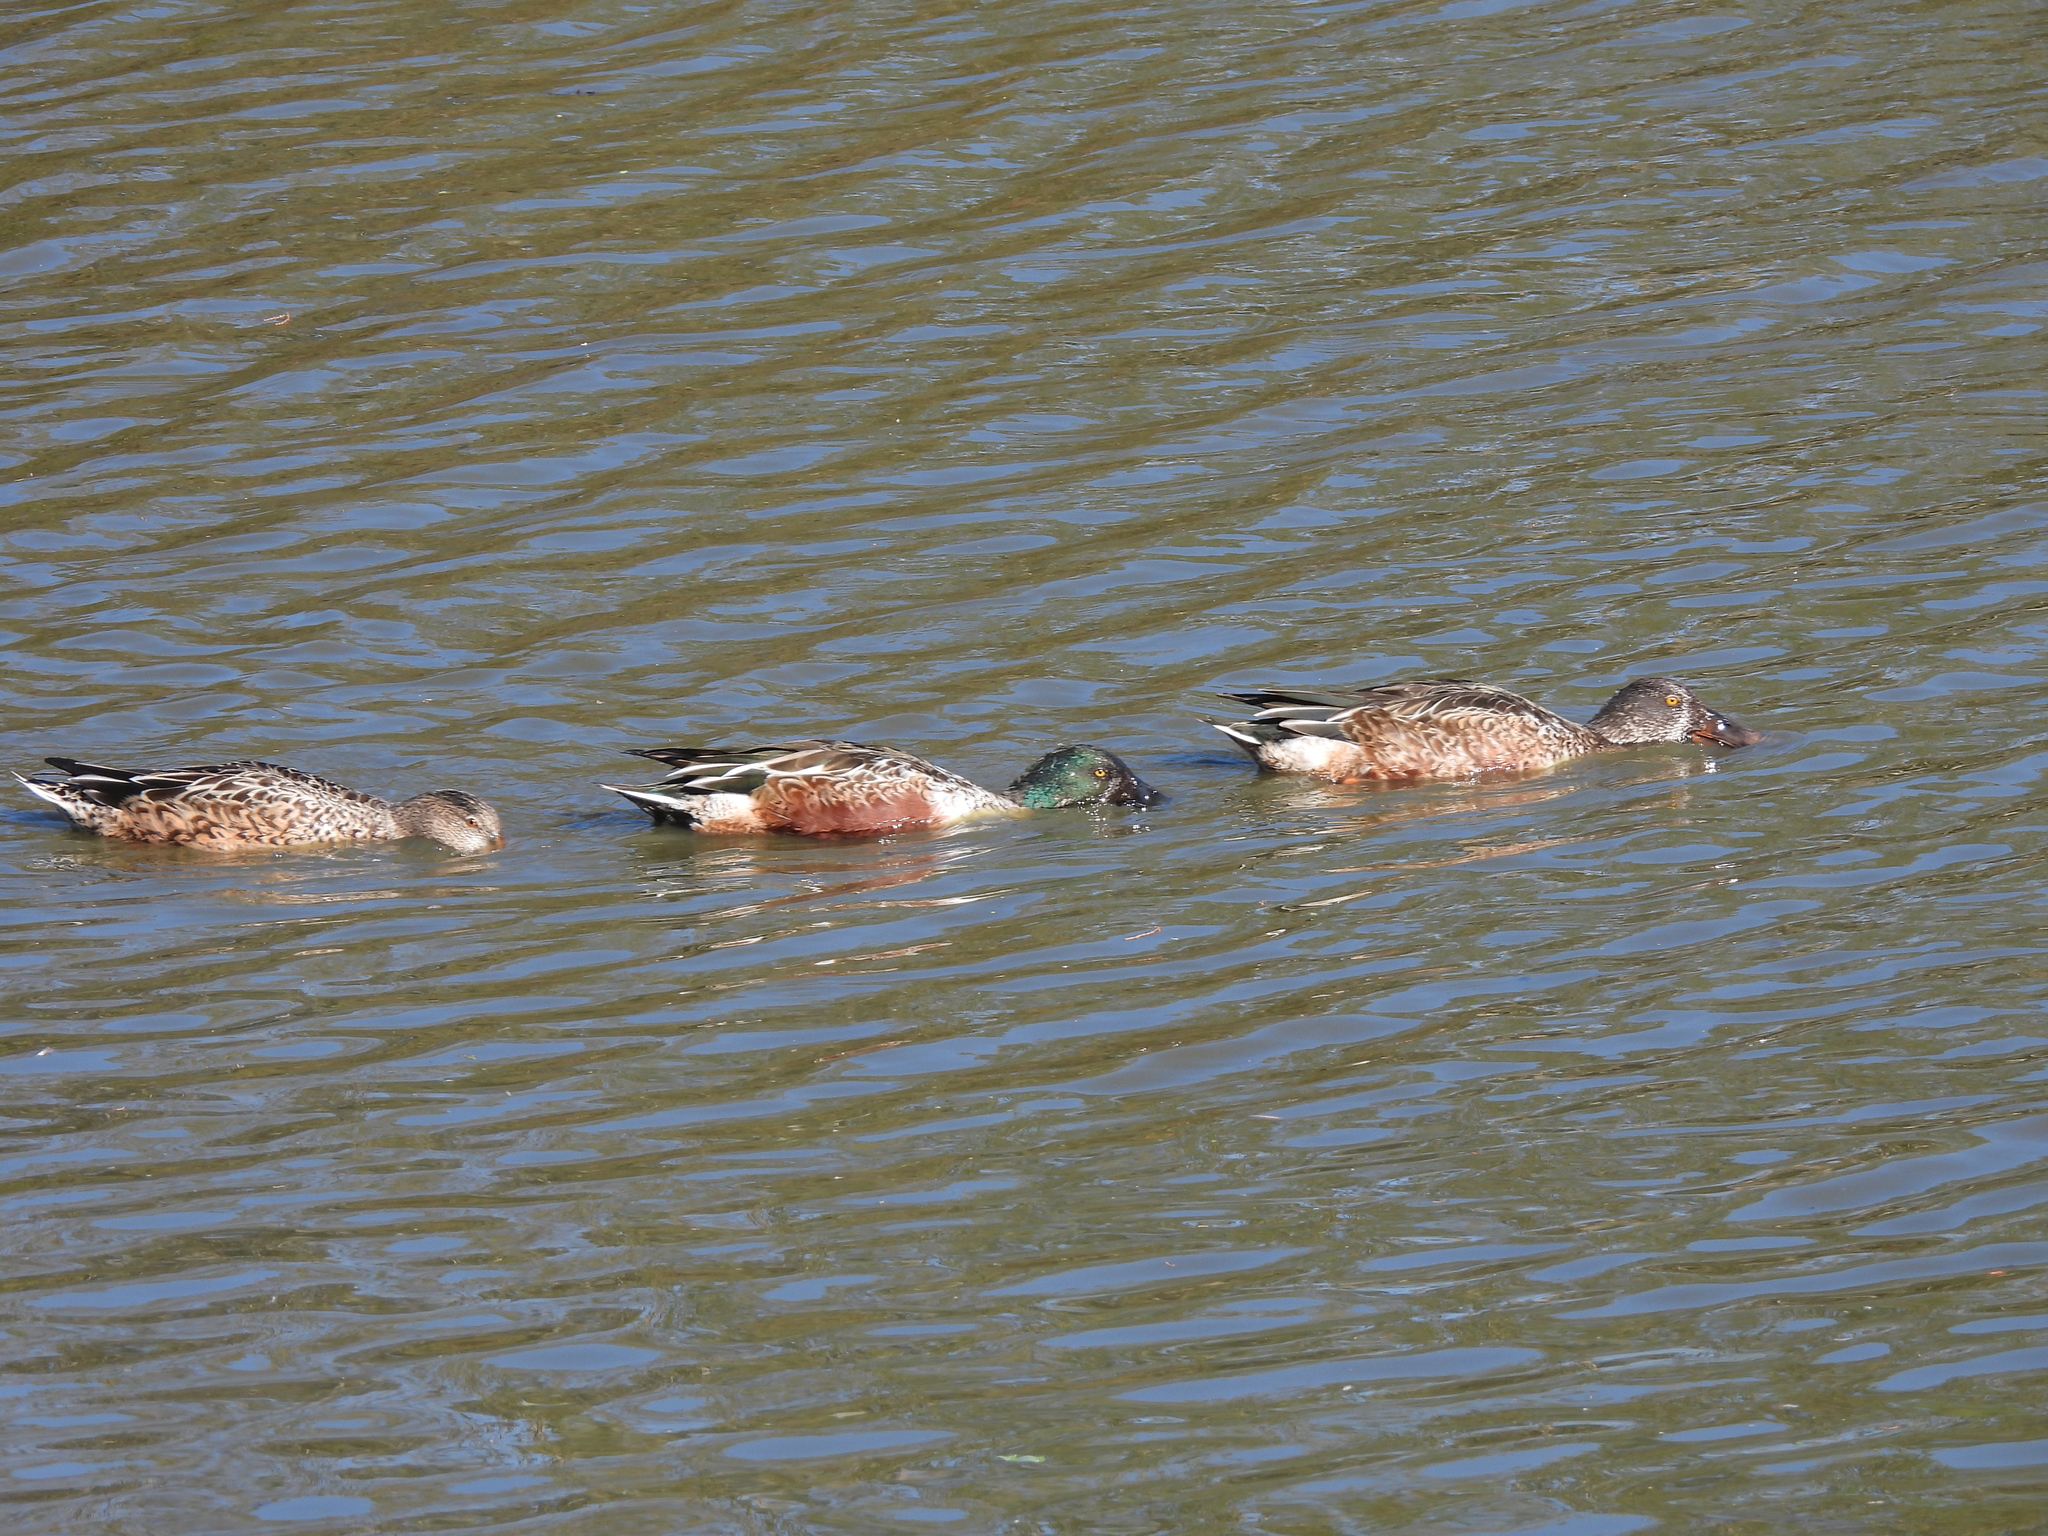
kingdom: Animalia
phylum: Chordata
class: Aves
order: Anseriformes
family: Anatidae
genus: Spatula
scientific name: Spatula clypeata
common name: Northern shoveler
